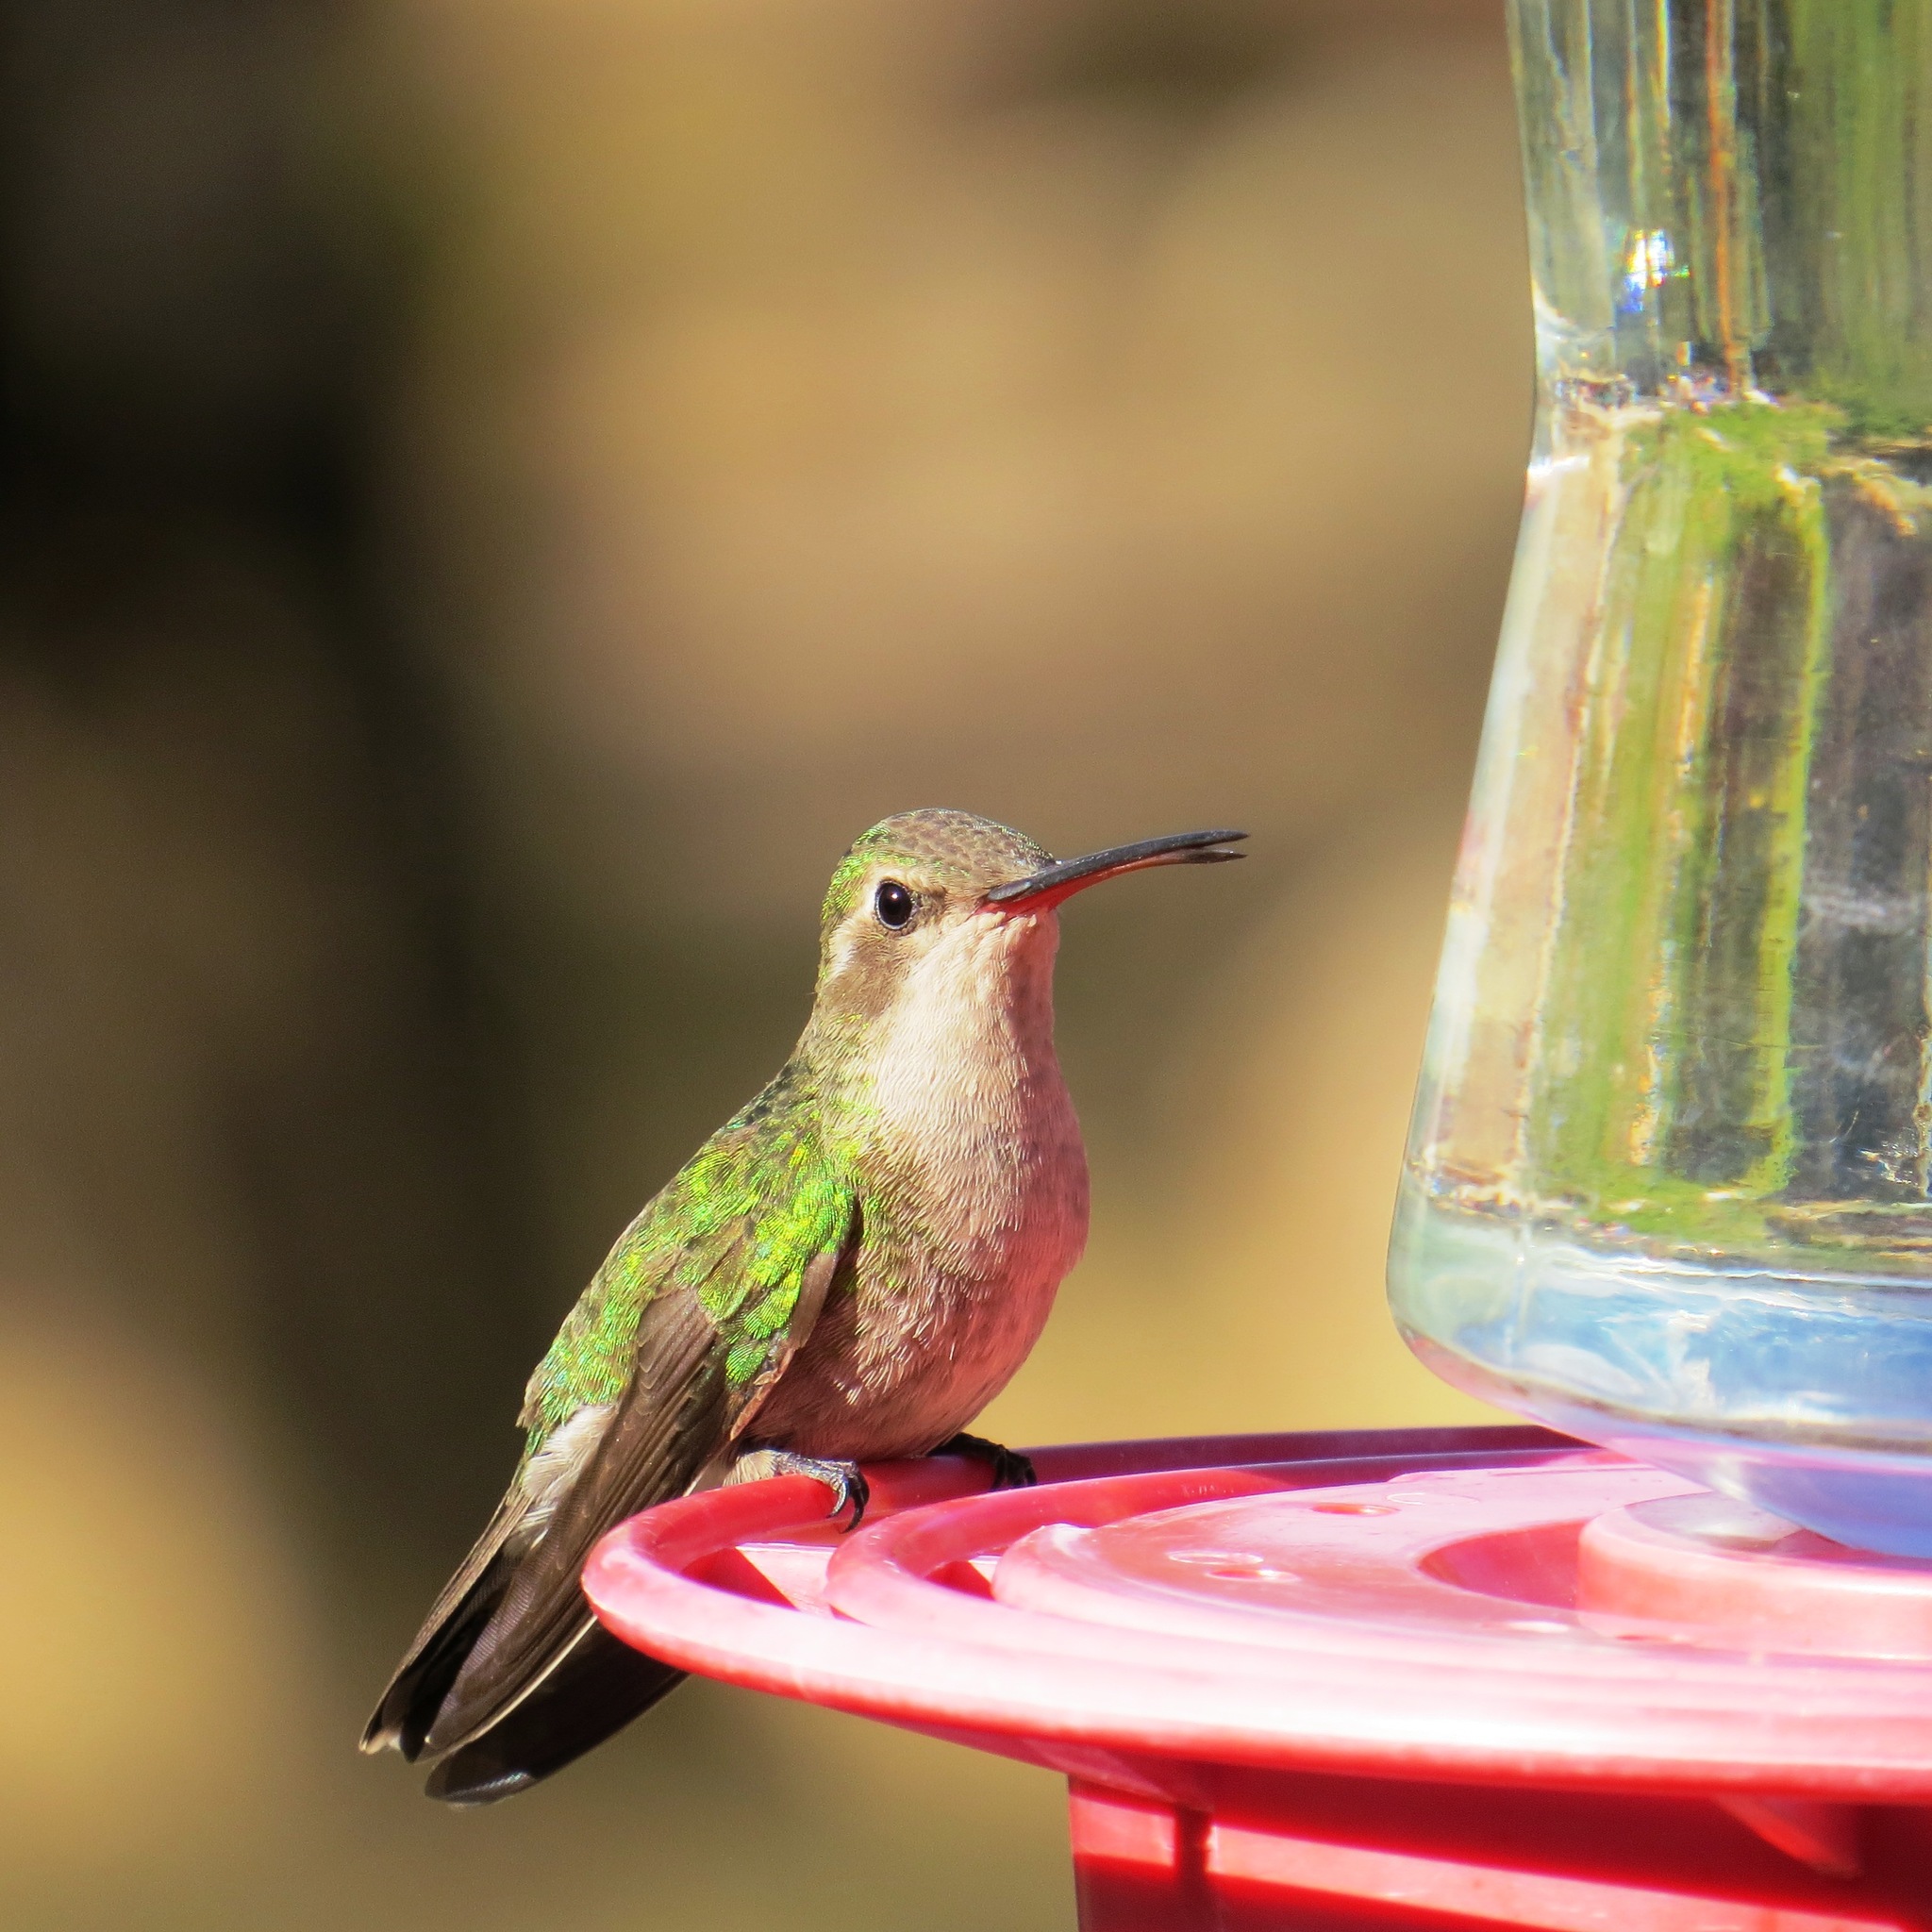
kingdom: Animalia
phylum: Chordata
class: Aves
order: Apodiformes
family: Trochilidae
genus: Cynanthus
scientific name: Cynanthus latirostris
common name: Broad-billed hummingbird
